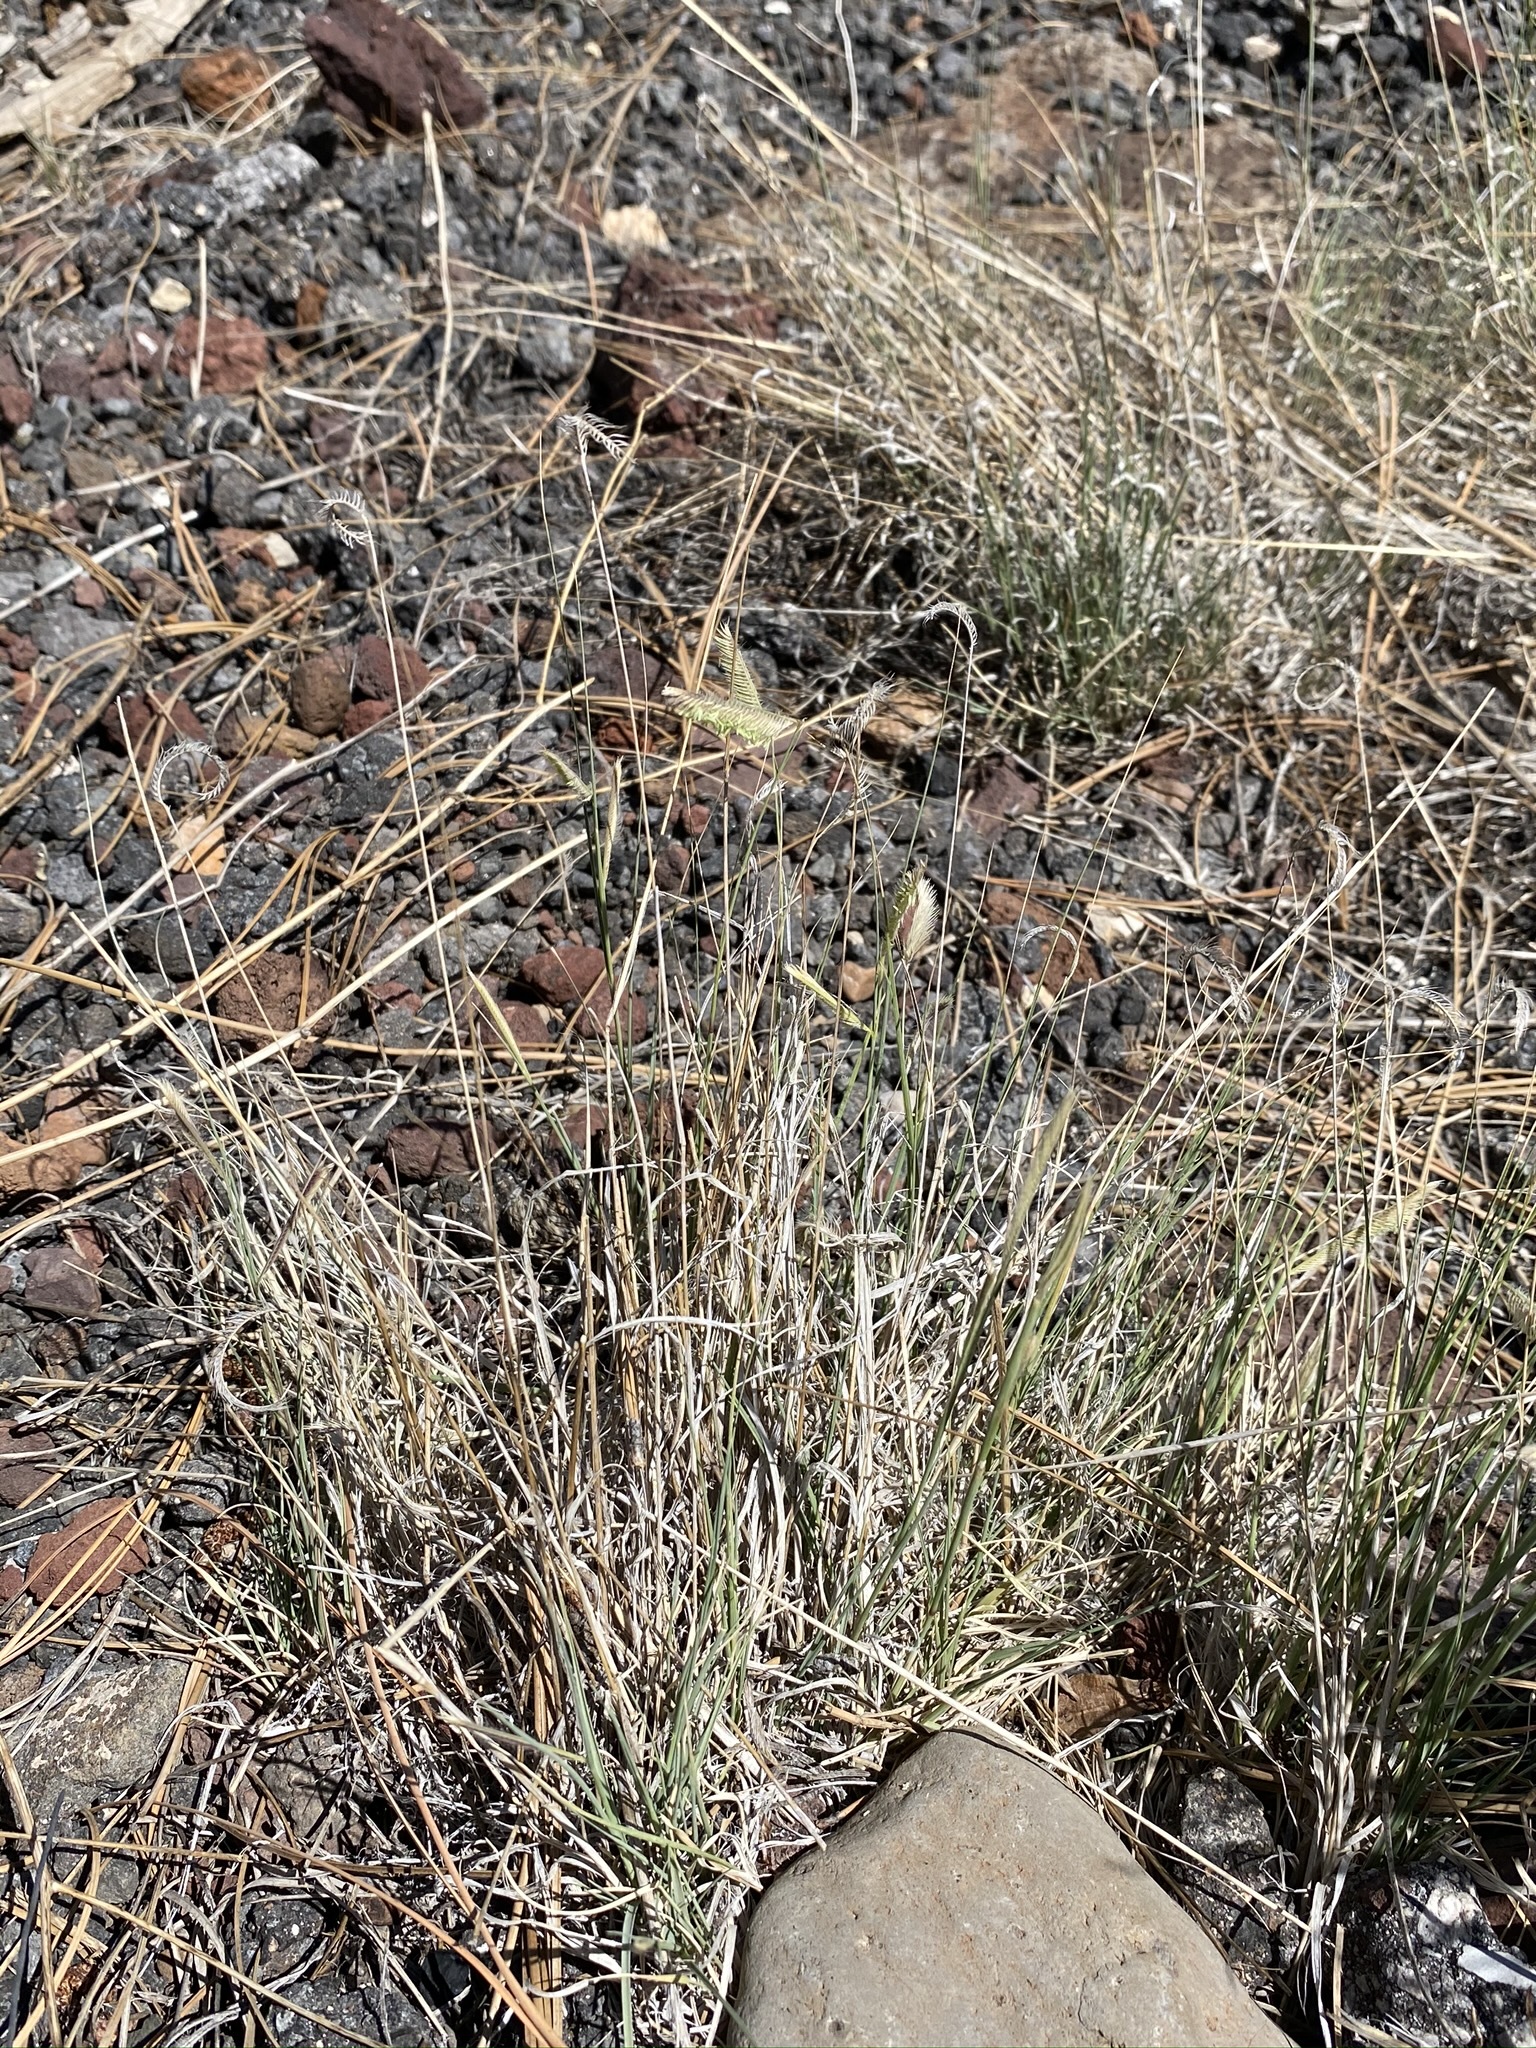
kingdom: Plantae
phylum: Tracheophyta
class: Liliopsida
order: Poales
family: Poaceae
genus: Bouteloua
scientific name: Bouteloua gracilis
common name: Blue grama
